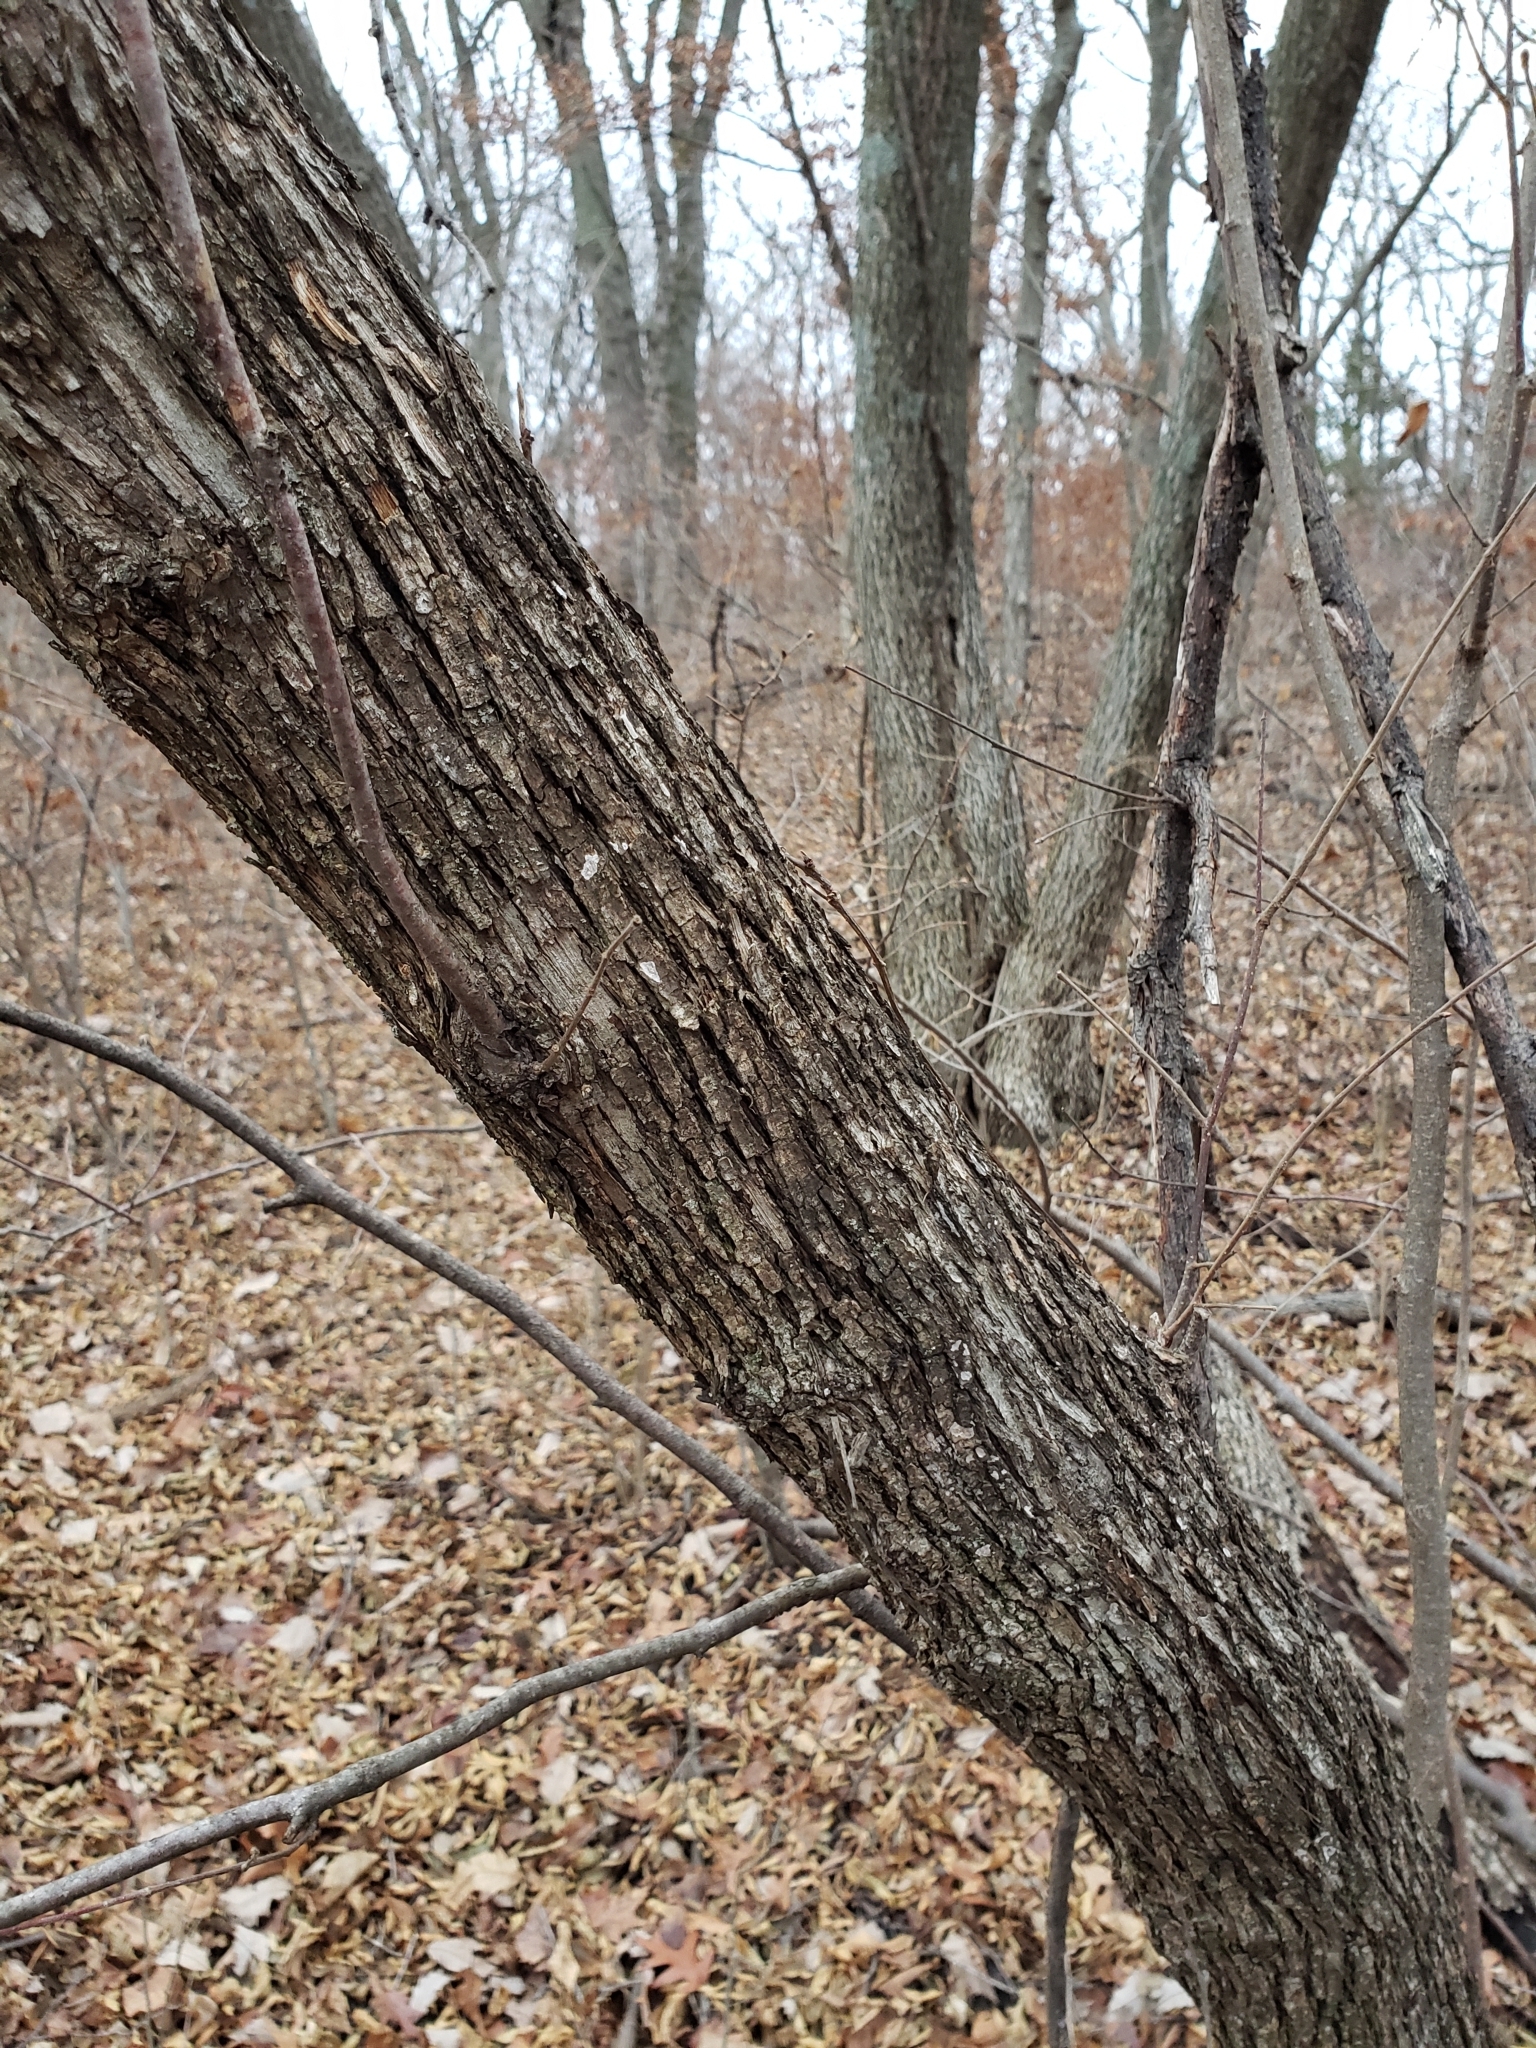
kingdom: Plantae
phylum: Tracheophyta
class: Magnoliopsida
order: Fagales
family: Betulaceae
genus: Ostrya
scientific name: Ostrya virginiana
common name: Ironwood
